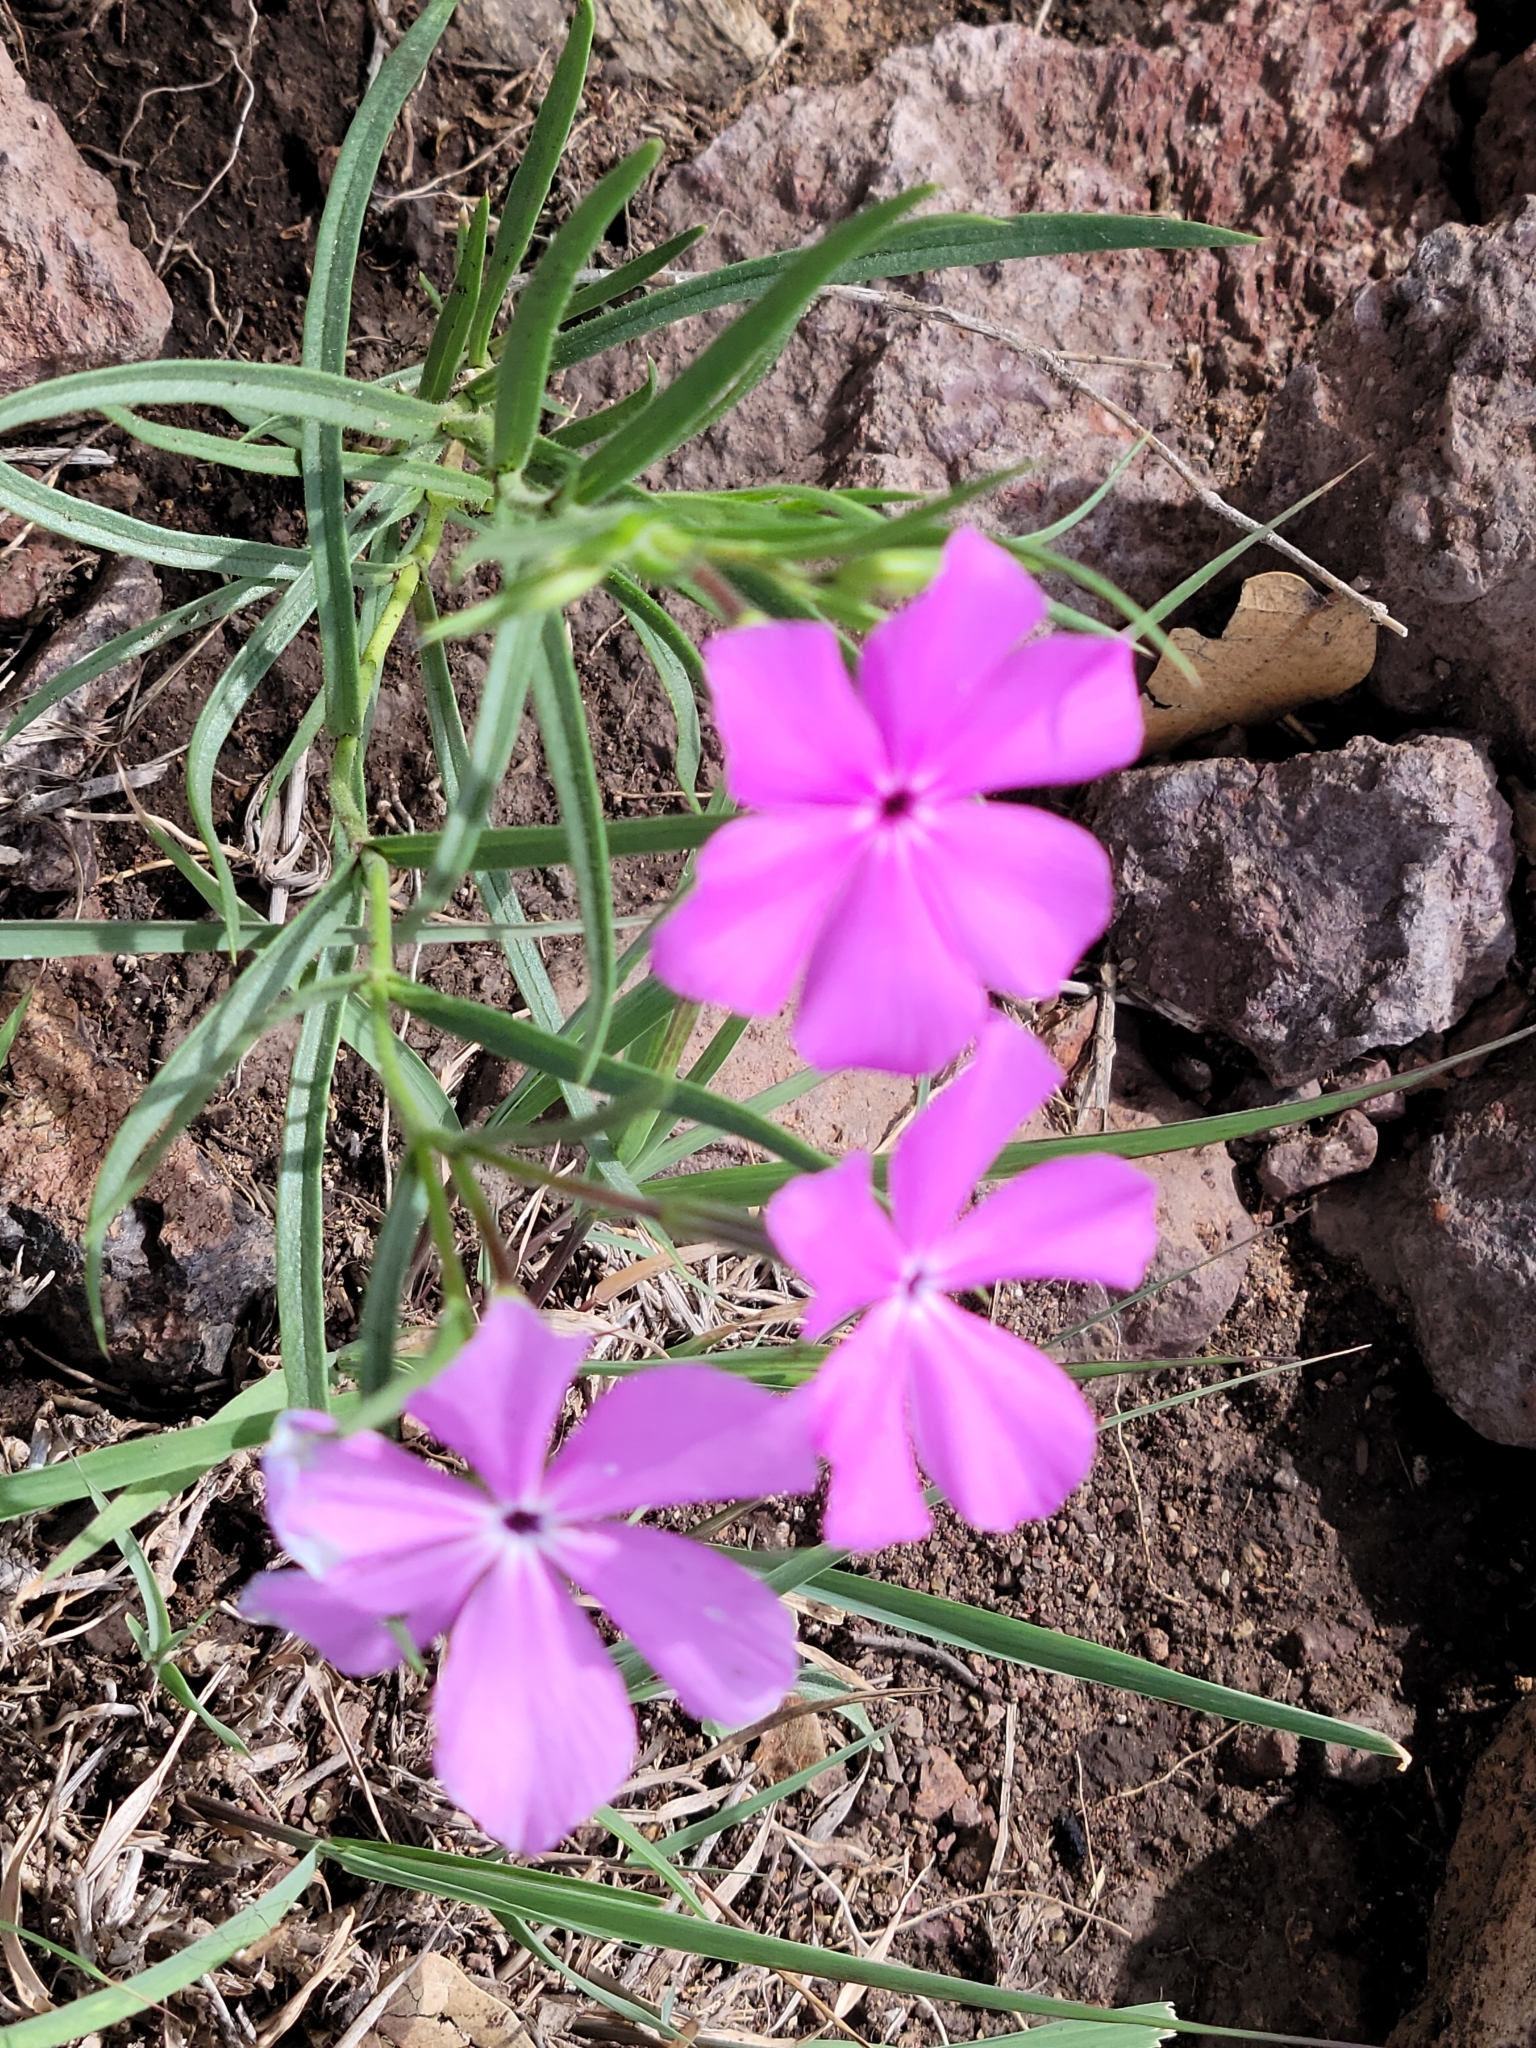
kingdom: Plantae
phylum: Tracheophyta
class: Magnoliopsida
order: Ericales
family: Polemoniaceae
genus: Phlox
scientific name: Phlox nana
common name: Santa fe phlox
